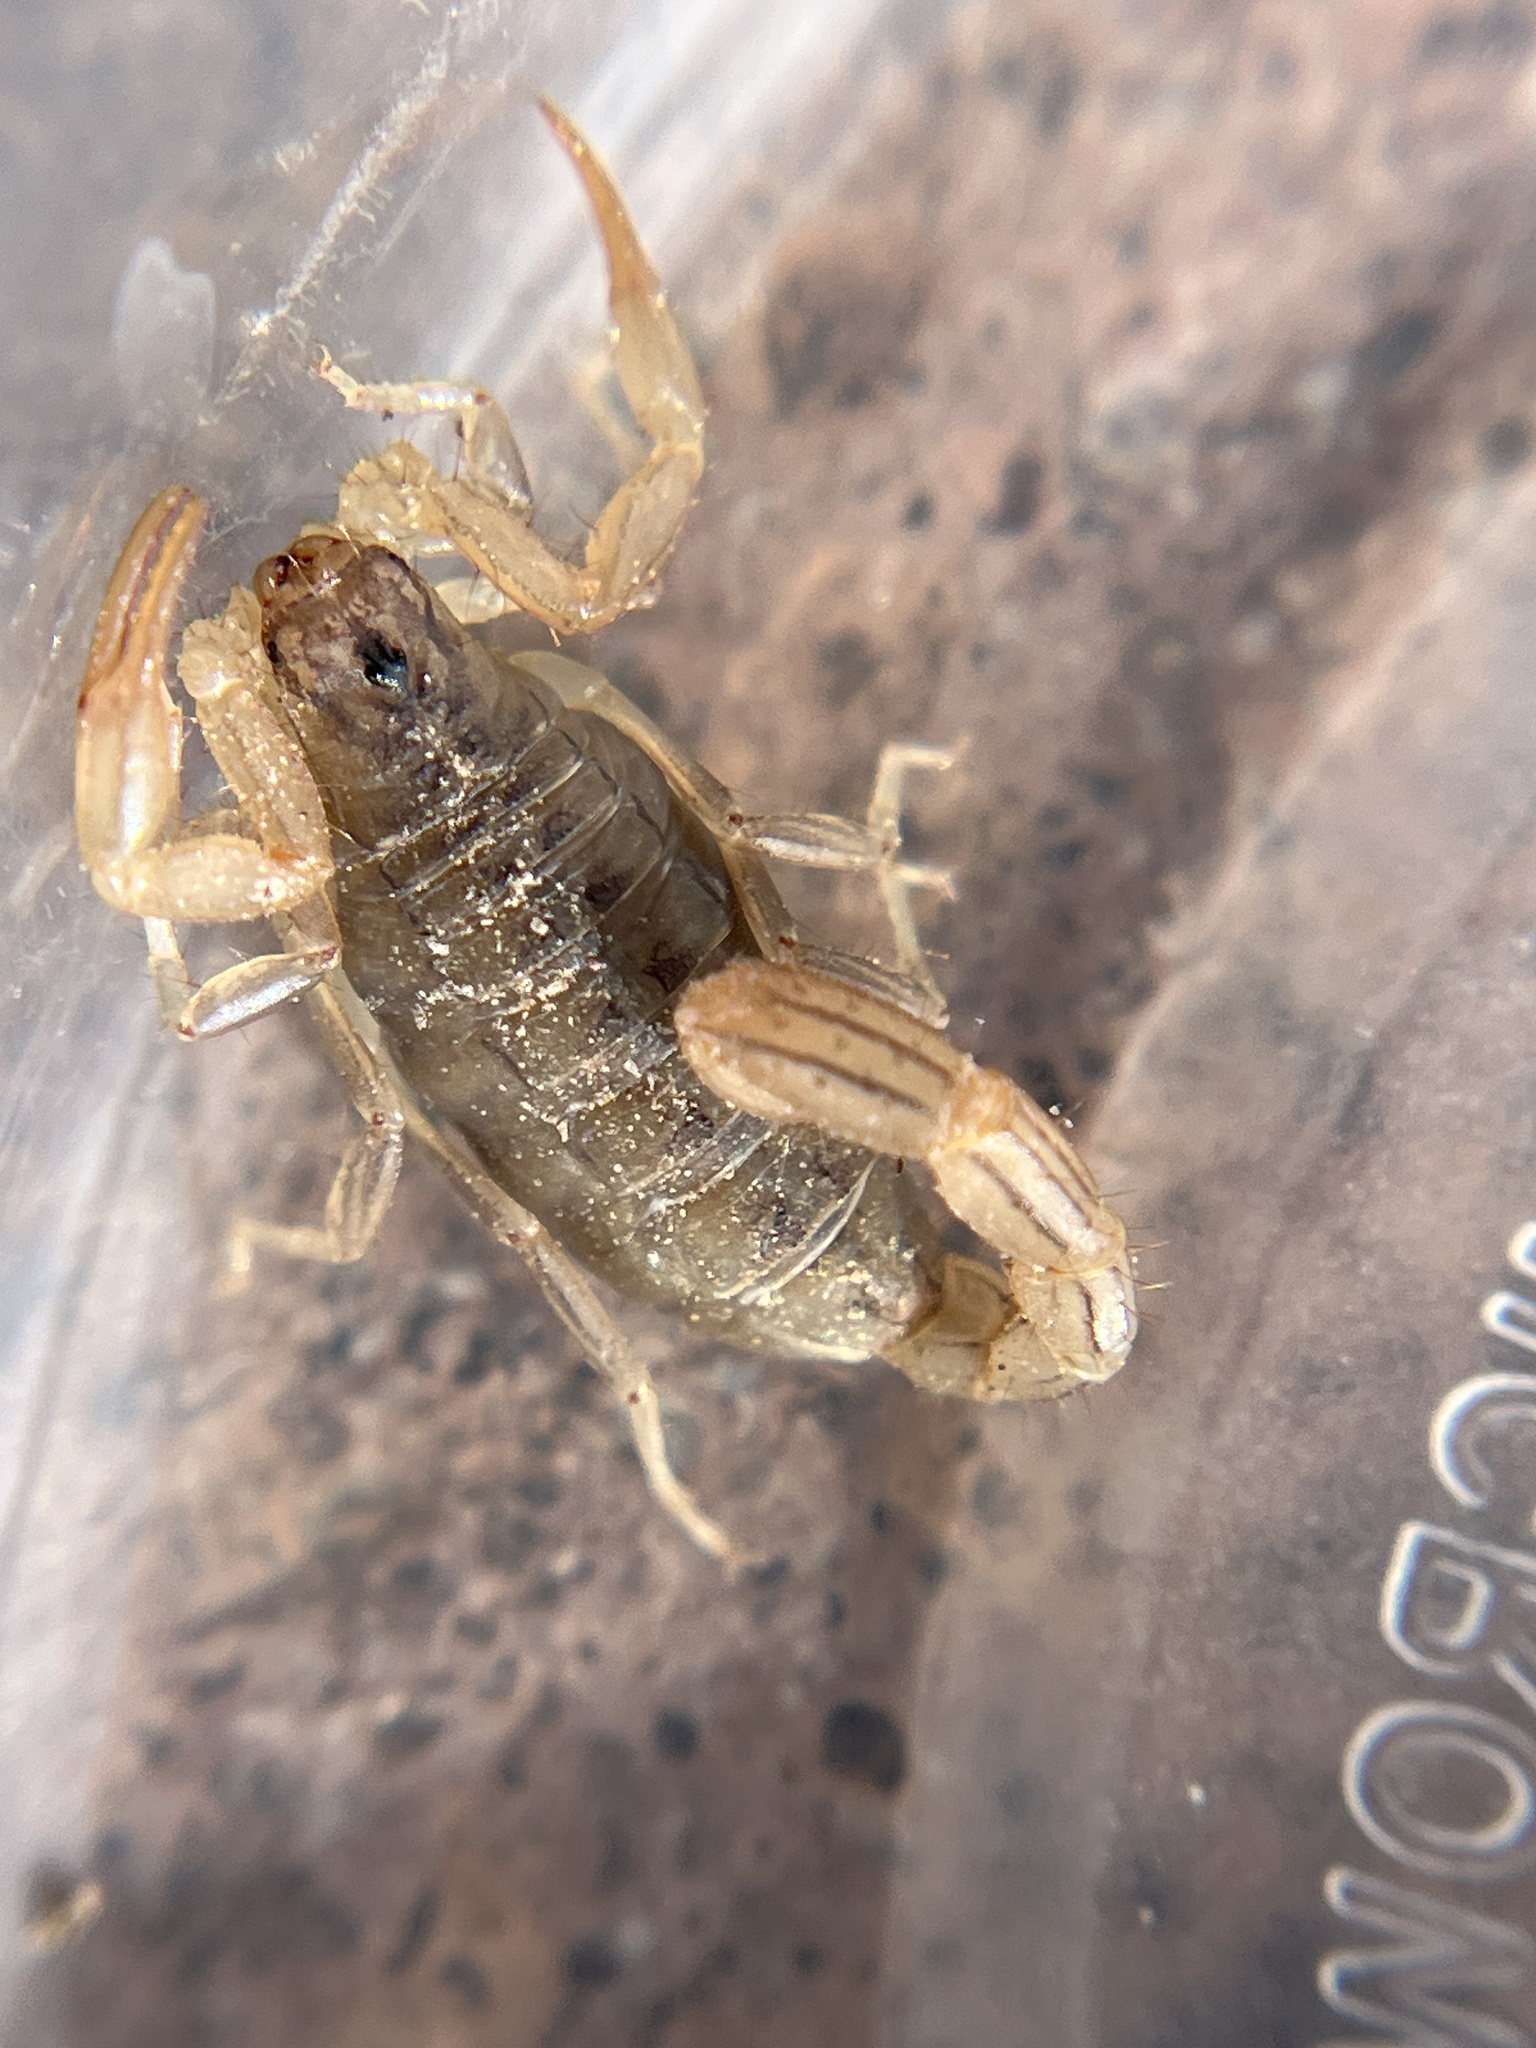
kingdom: Animalia
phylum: Arthropoda
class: Arachnida
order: Scorpiones
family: Vaejovidae
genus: Paravaejovis
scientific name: Paravaejovis spinigerus
